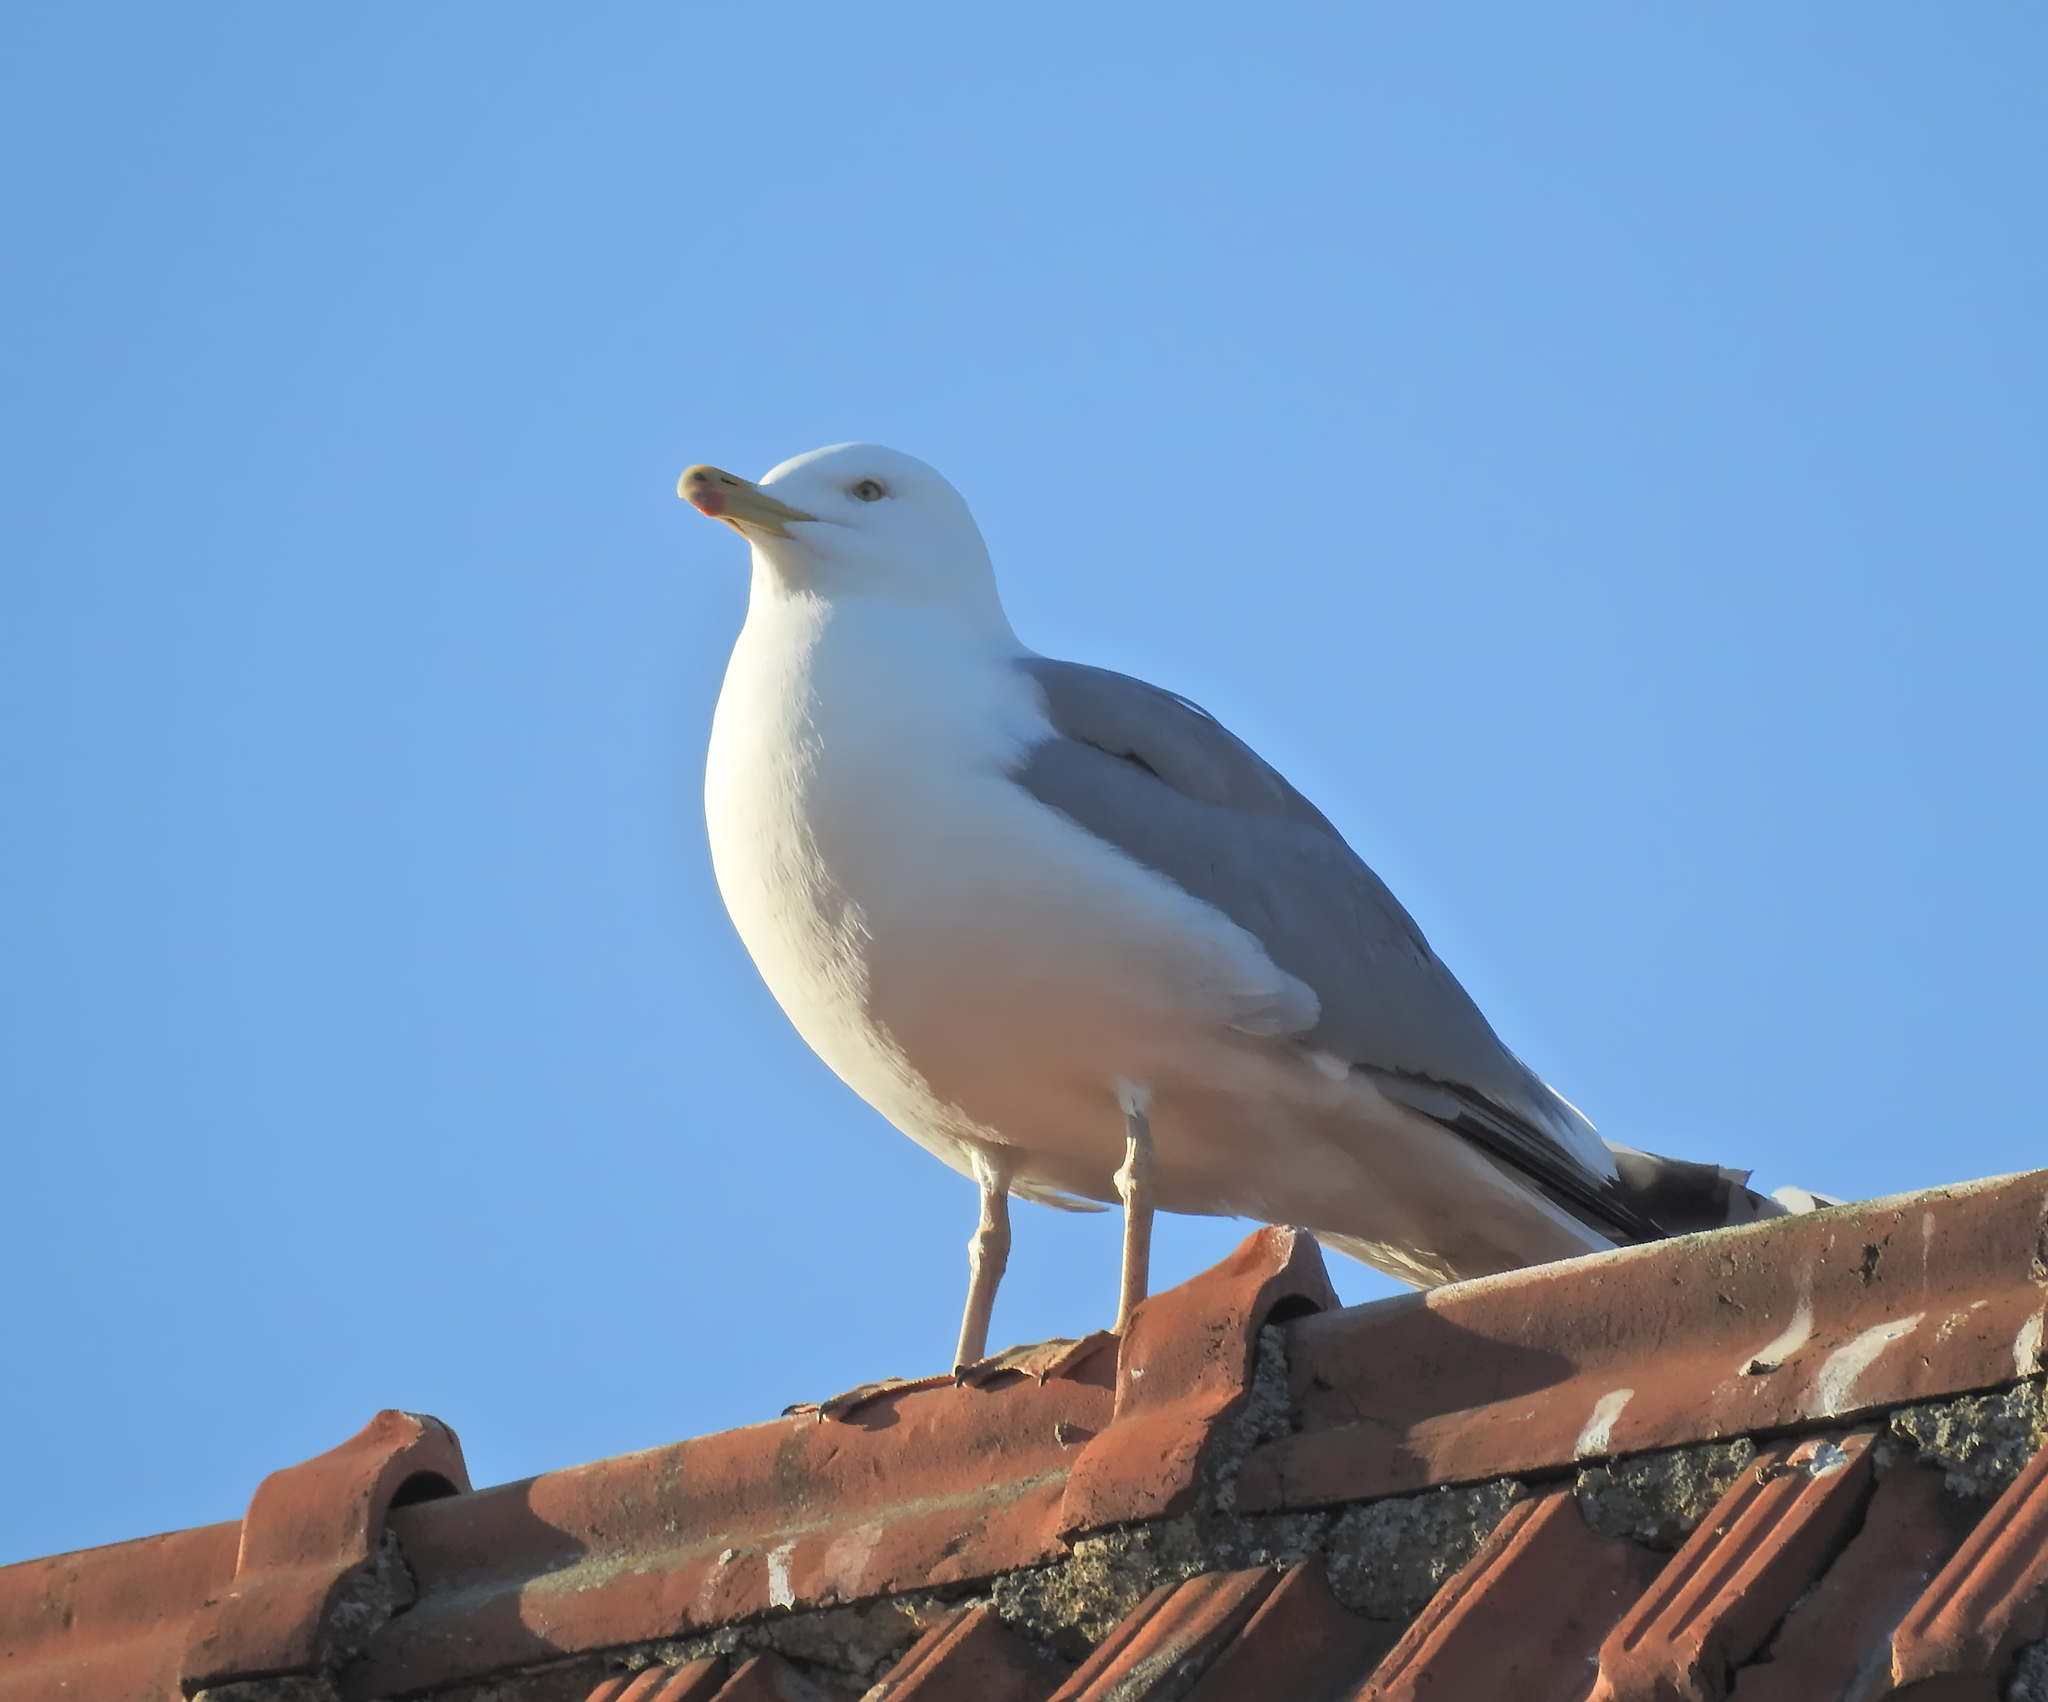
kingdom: Animalia
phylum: Chordata
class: Aves
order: Charadriiformes
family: Laridae
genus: Larus
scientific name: Larus argentatus
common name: Herring gull
